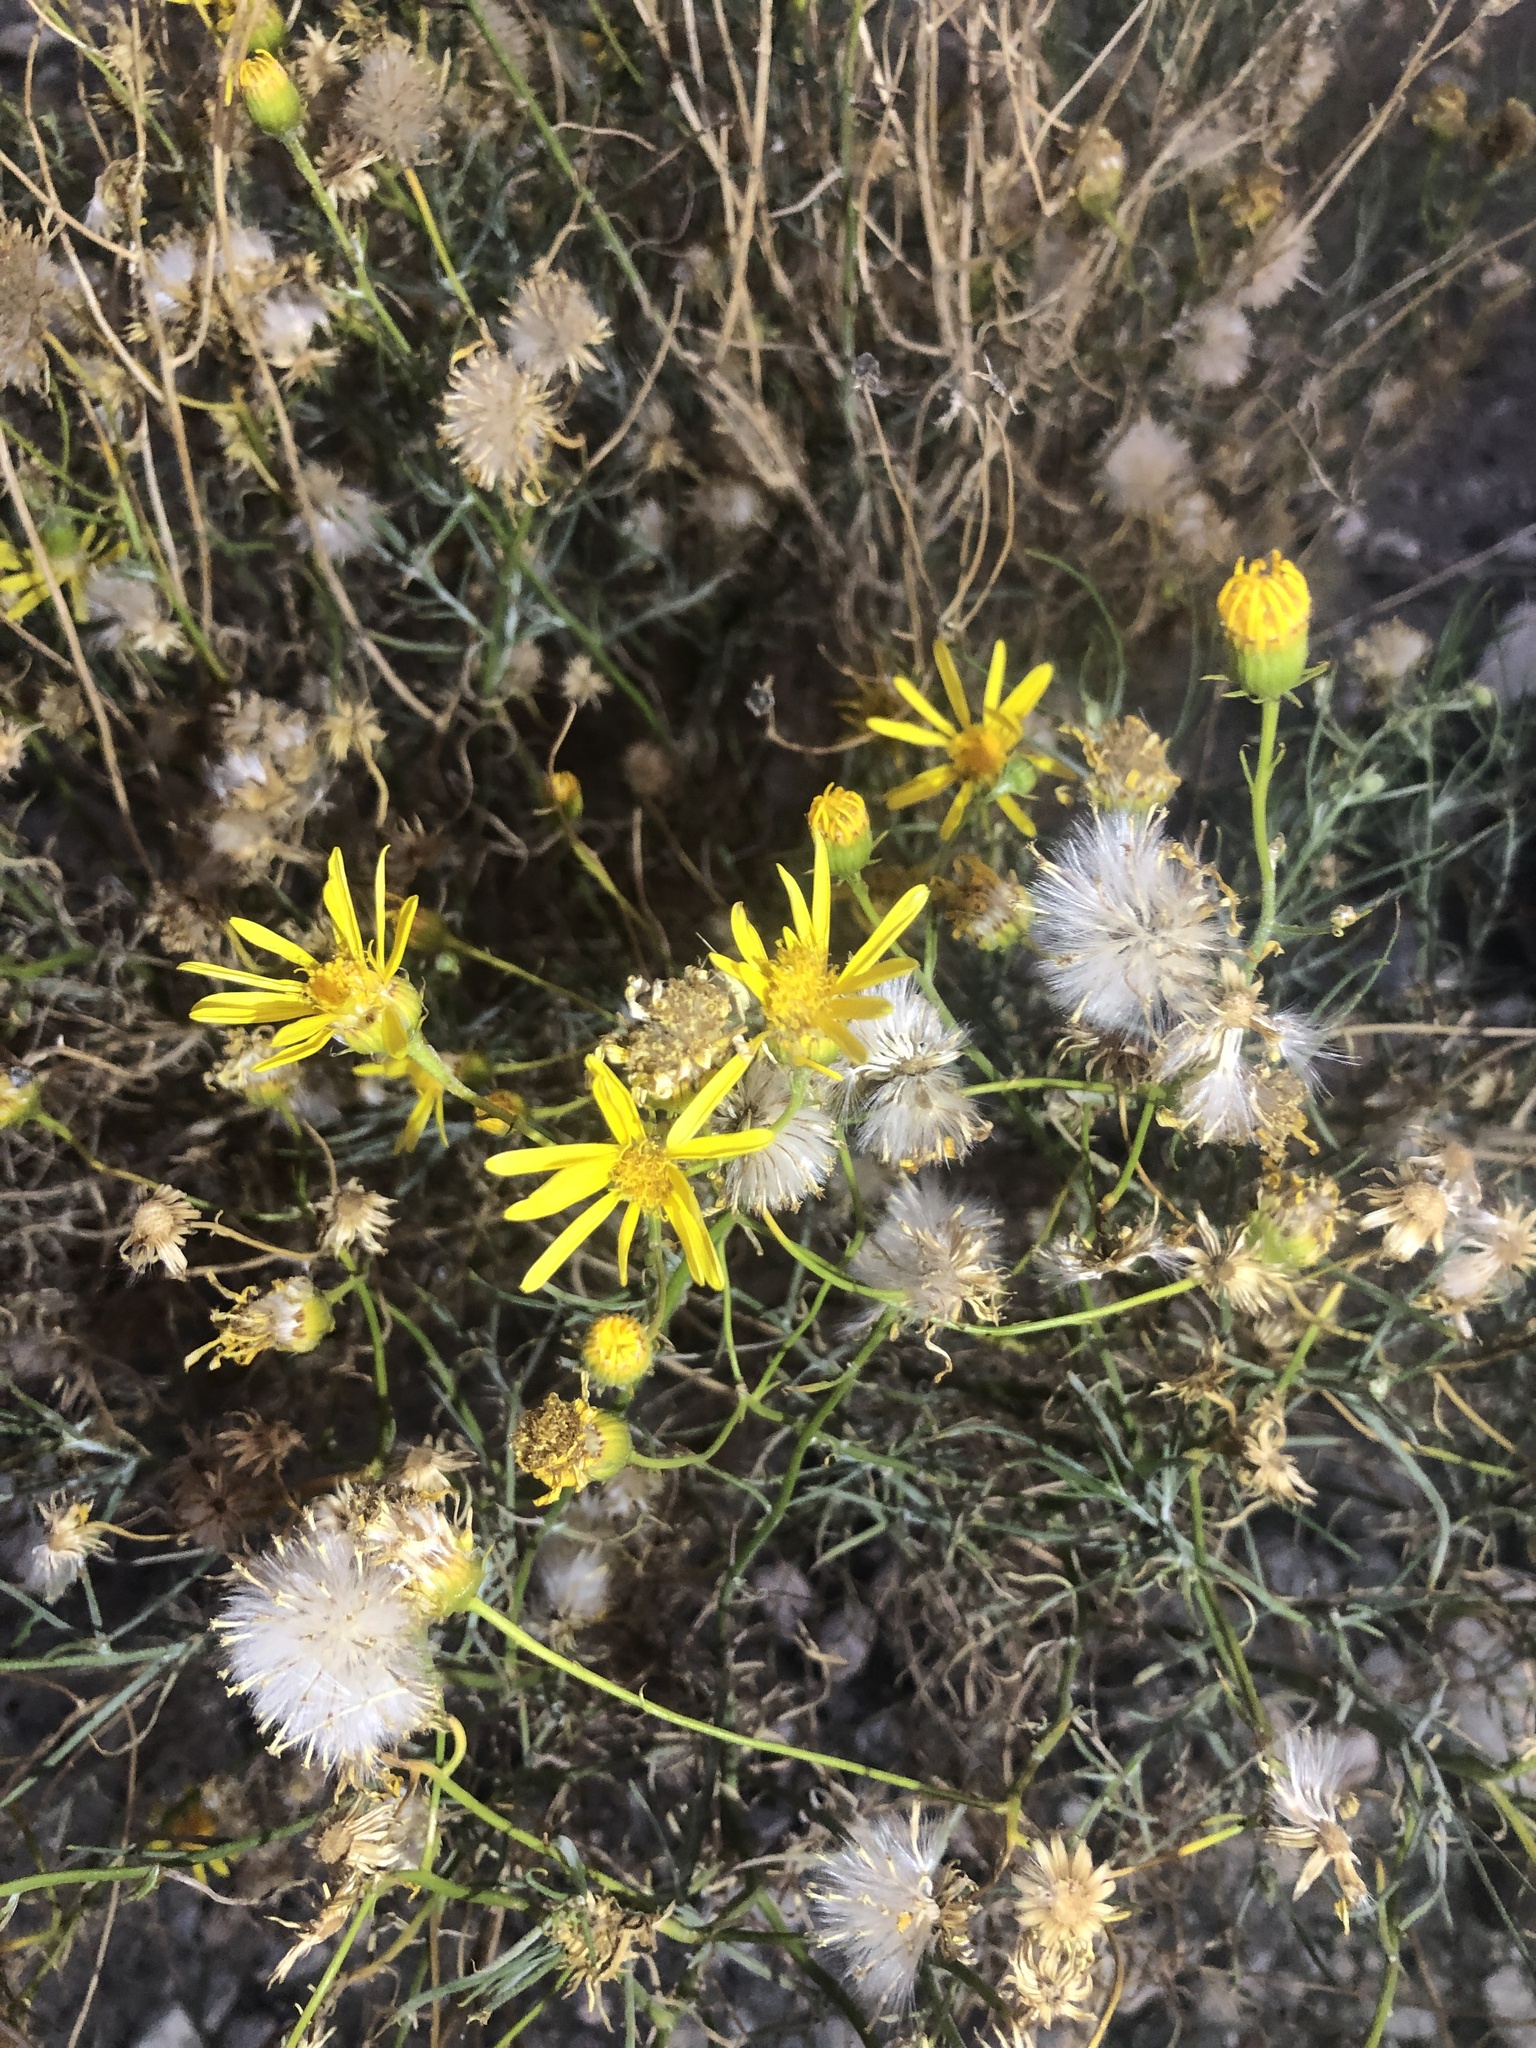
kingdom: Plantae
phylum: Tracheophyta
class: Magnoliopsida
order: Asterales
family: Asteraceae
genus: Senecio
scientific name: Senecio flaccidus
